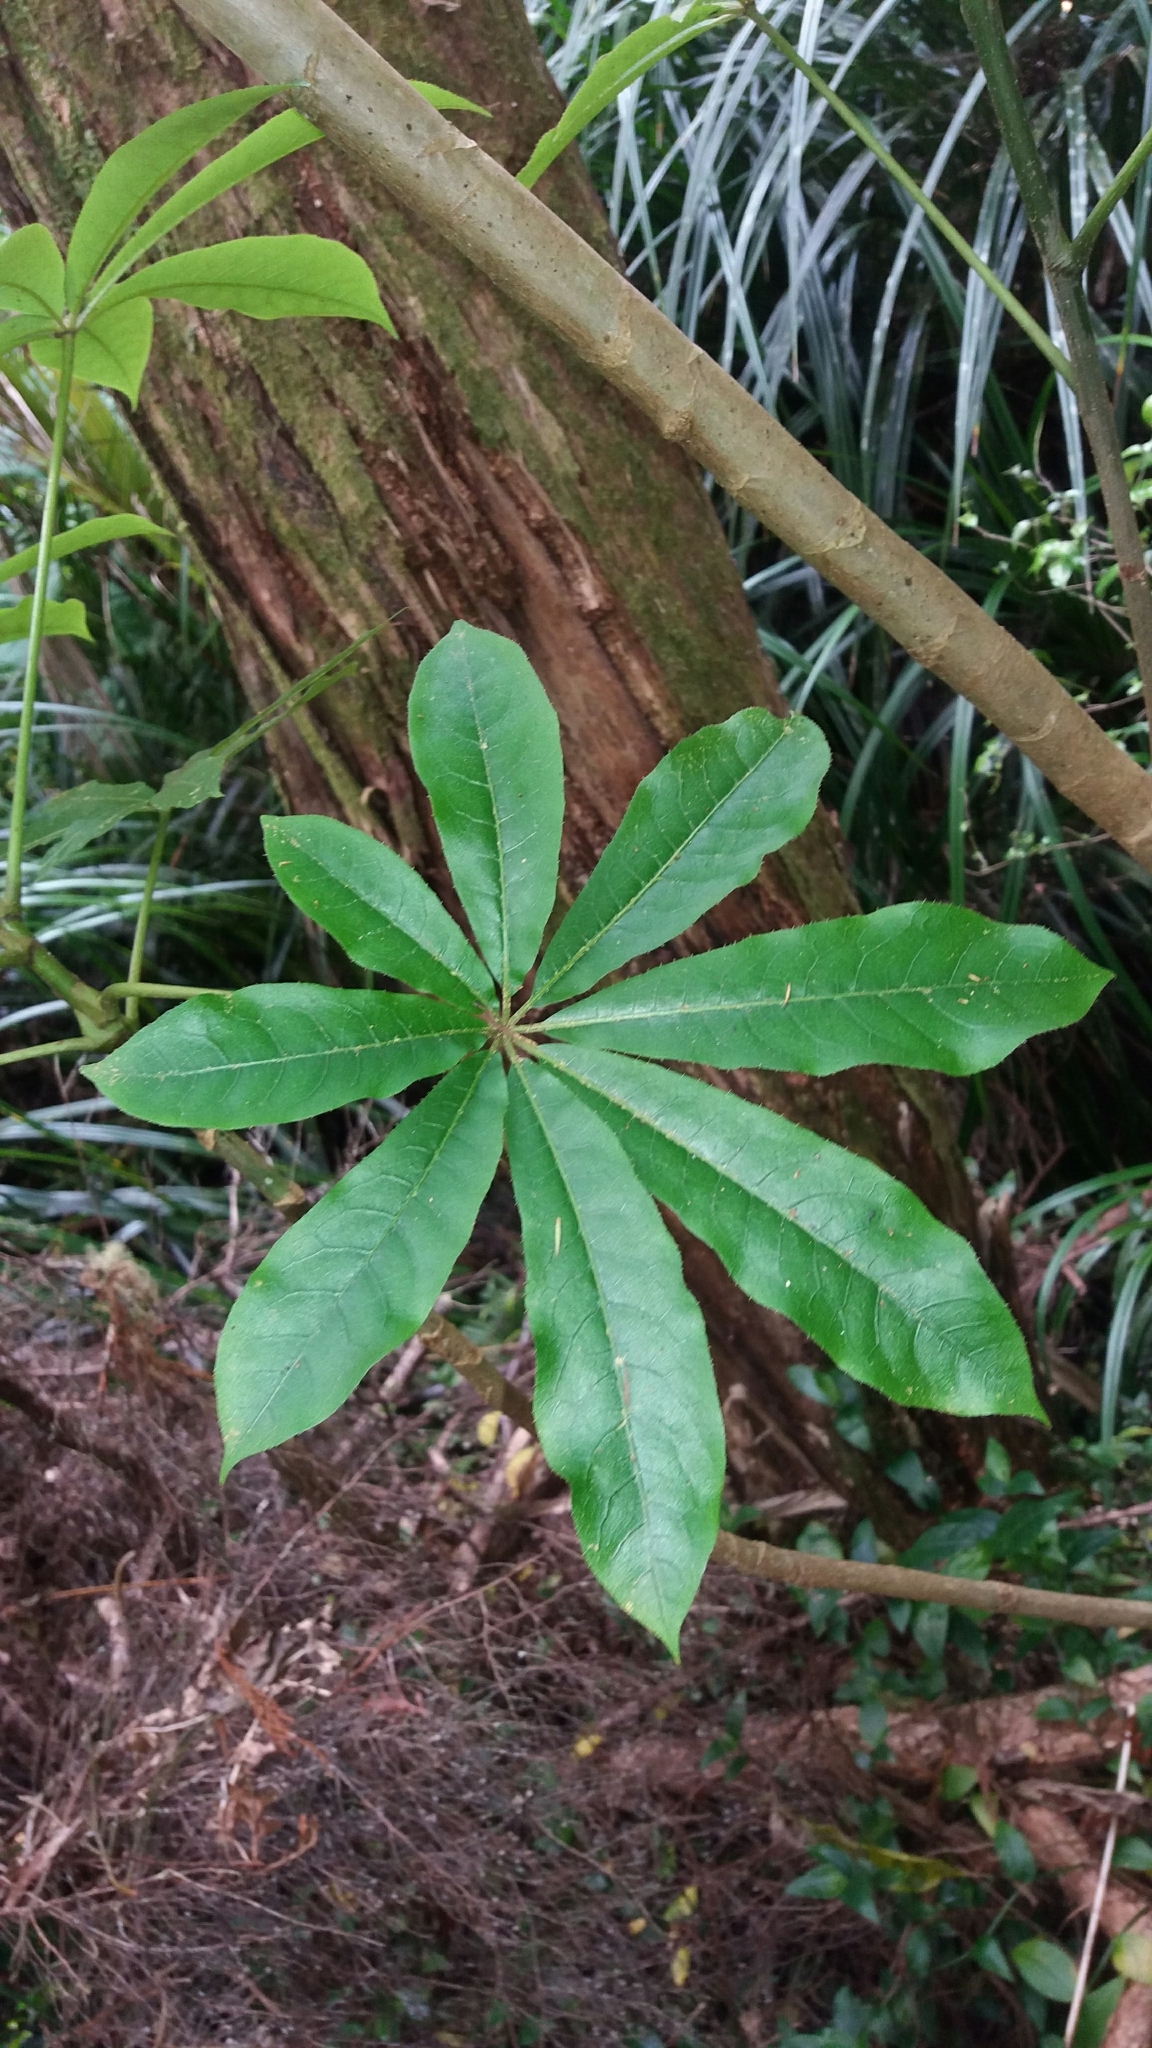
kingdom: Plantae
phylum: Tracheophyta
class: Magnoliopsida
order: Apiales
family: Araliaceae
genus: Schefflera
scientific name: Schefflera digitata
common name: Pate
